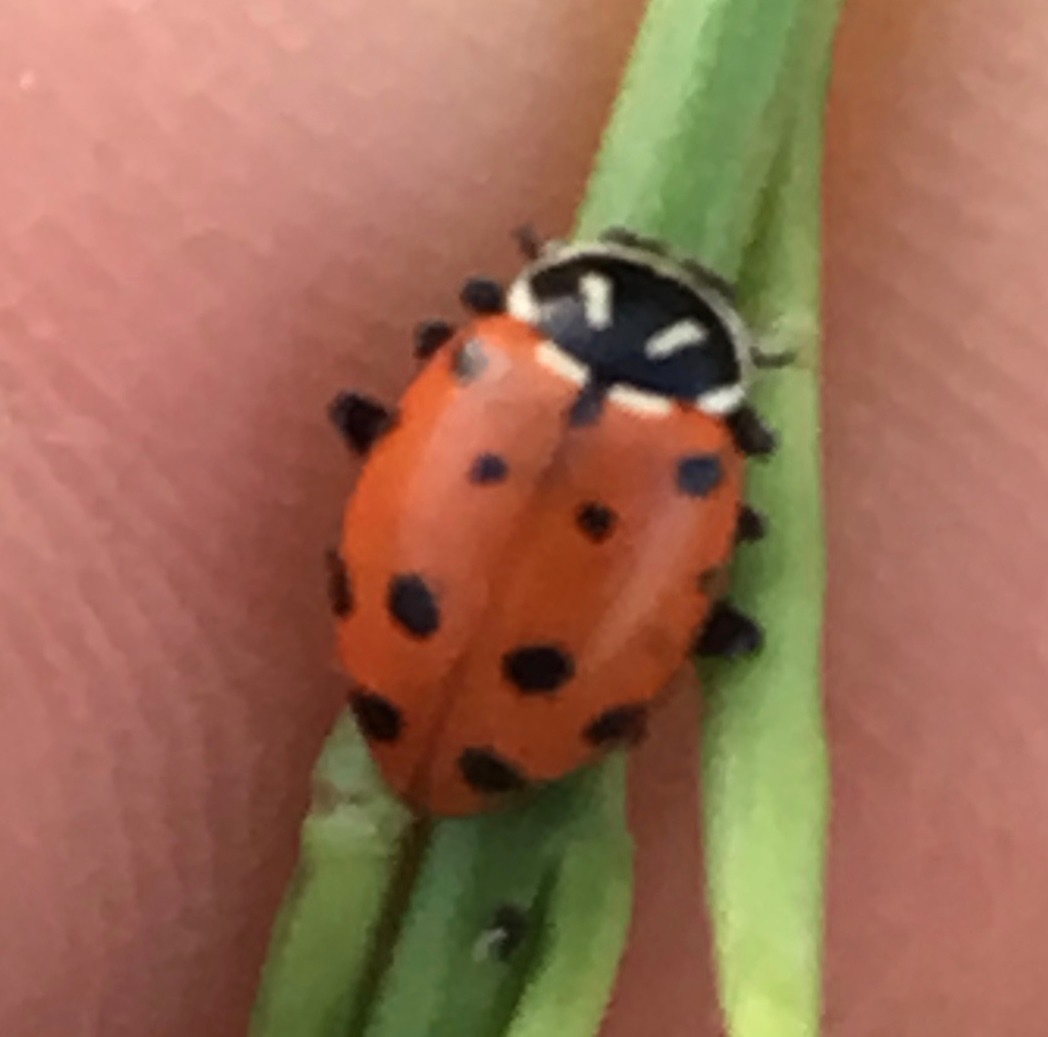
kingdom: Animalia
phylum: Arthropoda
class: Insecta
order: Coleoptera
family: Coccinellidae
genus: Hippodamia
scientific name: Hippodamia convergens
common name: Convergent lady beetle
